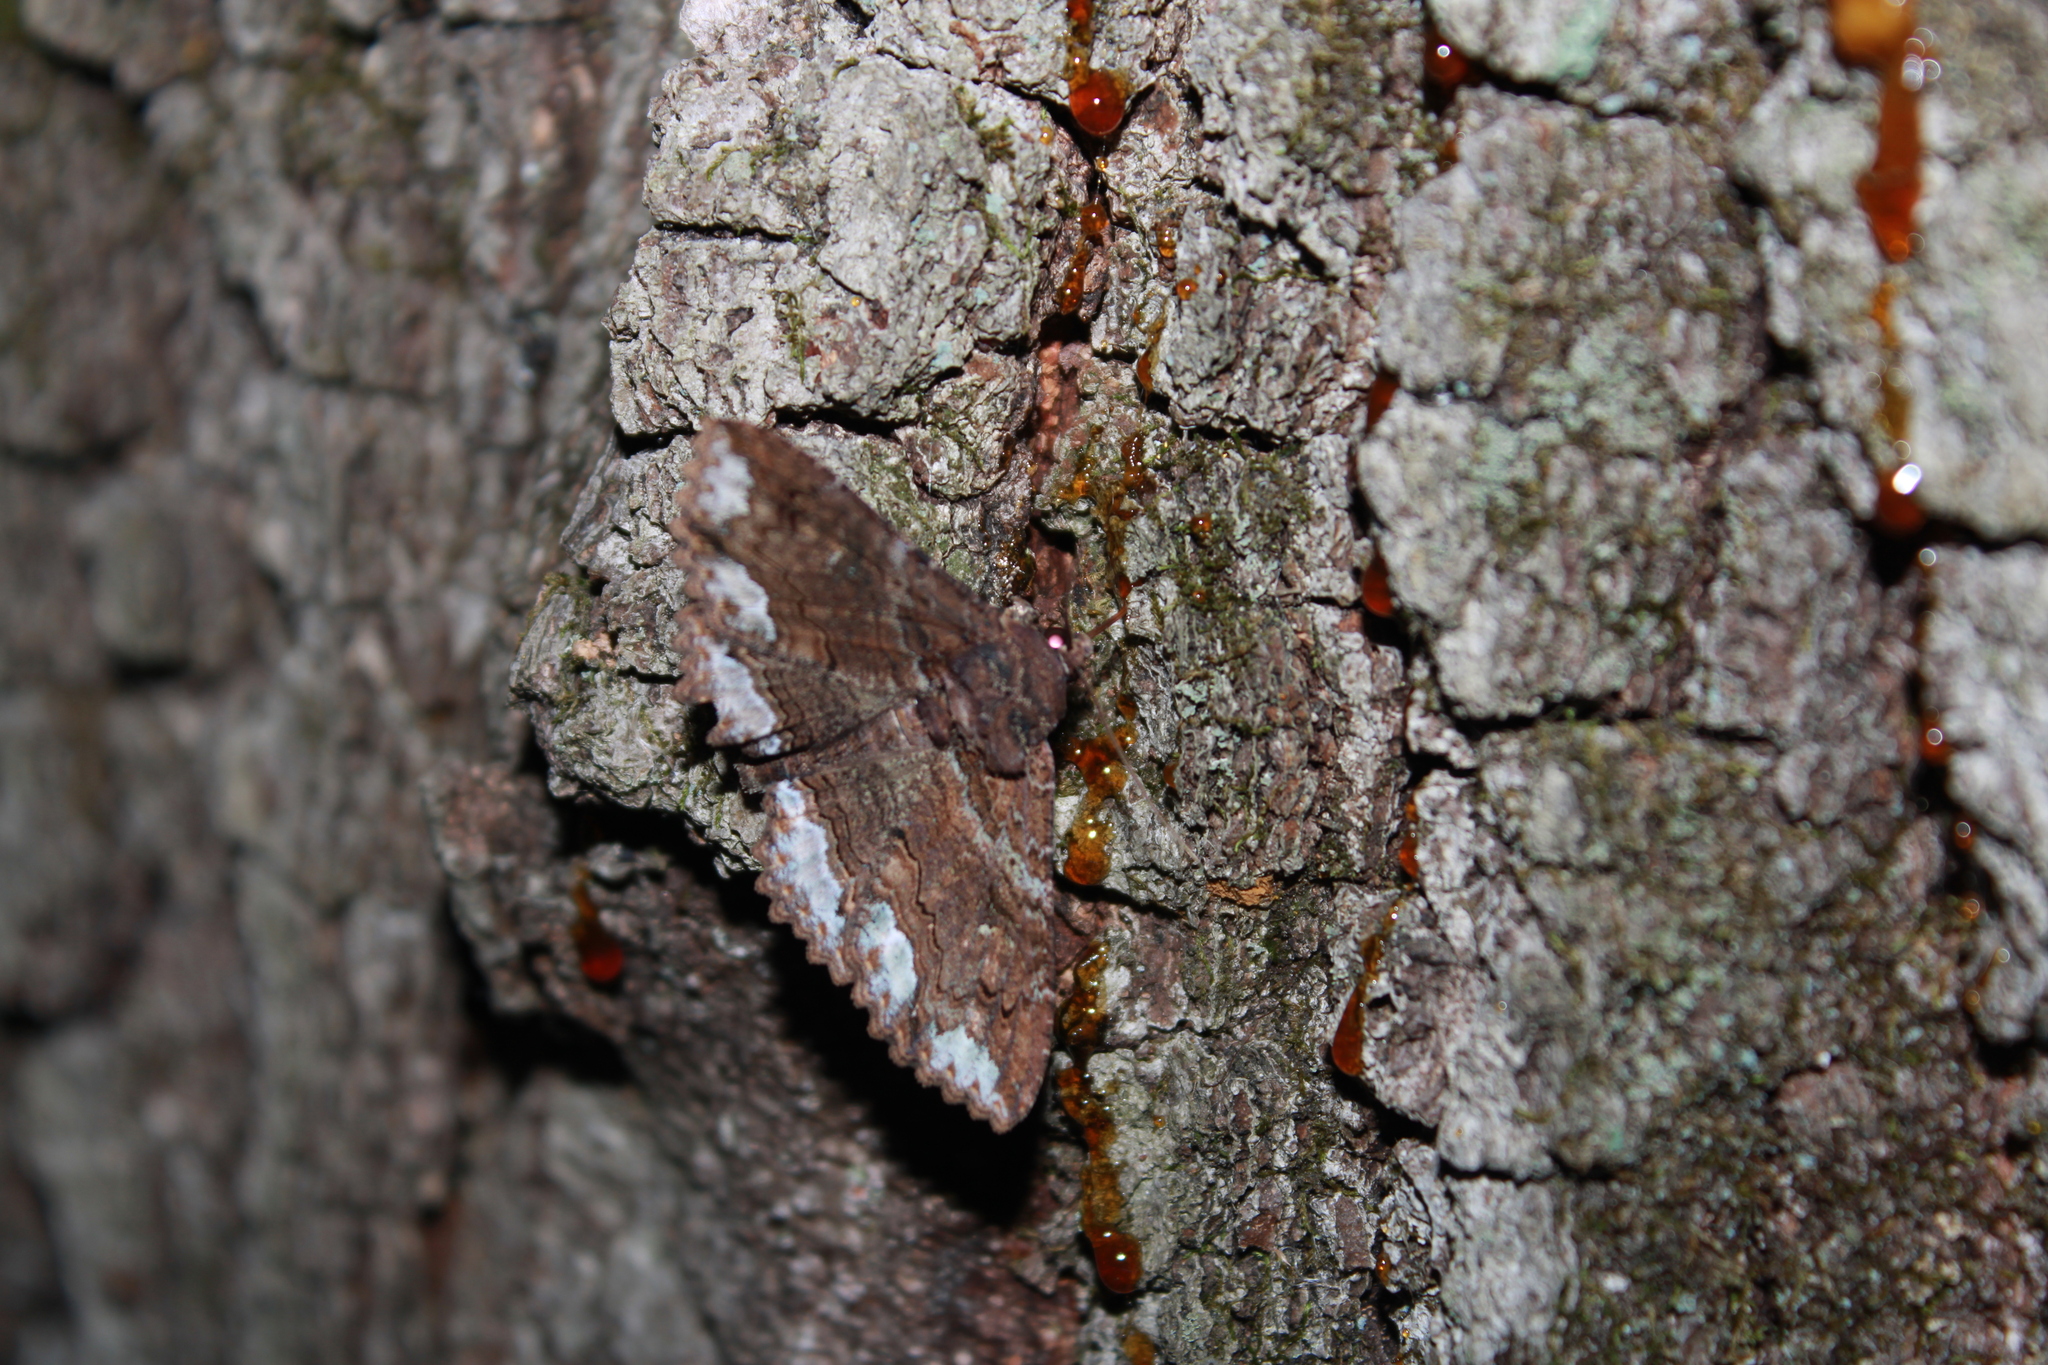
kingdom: Animalia
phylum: Arthropoda
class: Insecta
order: Lepidoptera
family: Erebidae
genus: Zale
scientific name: Zale lunata
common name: Lunate zale moth
